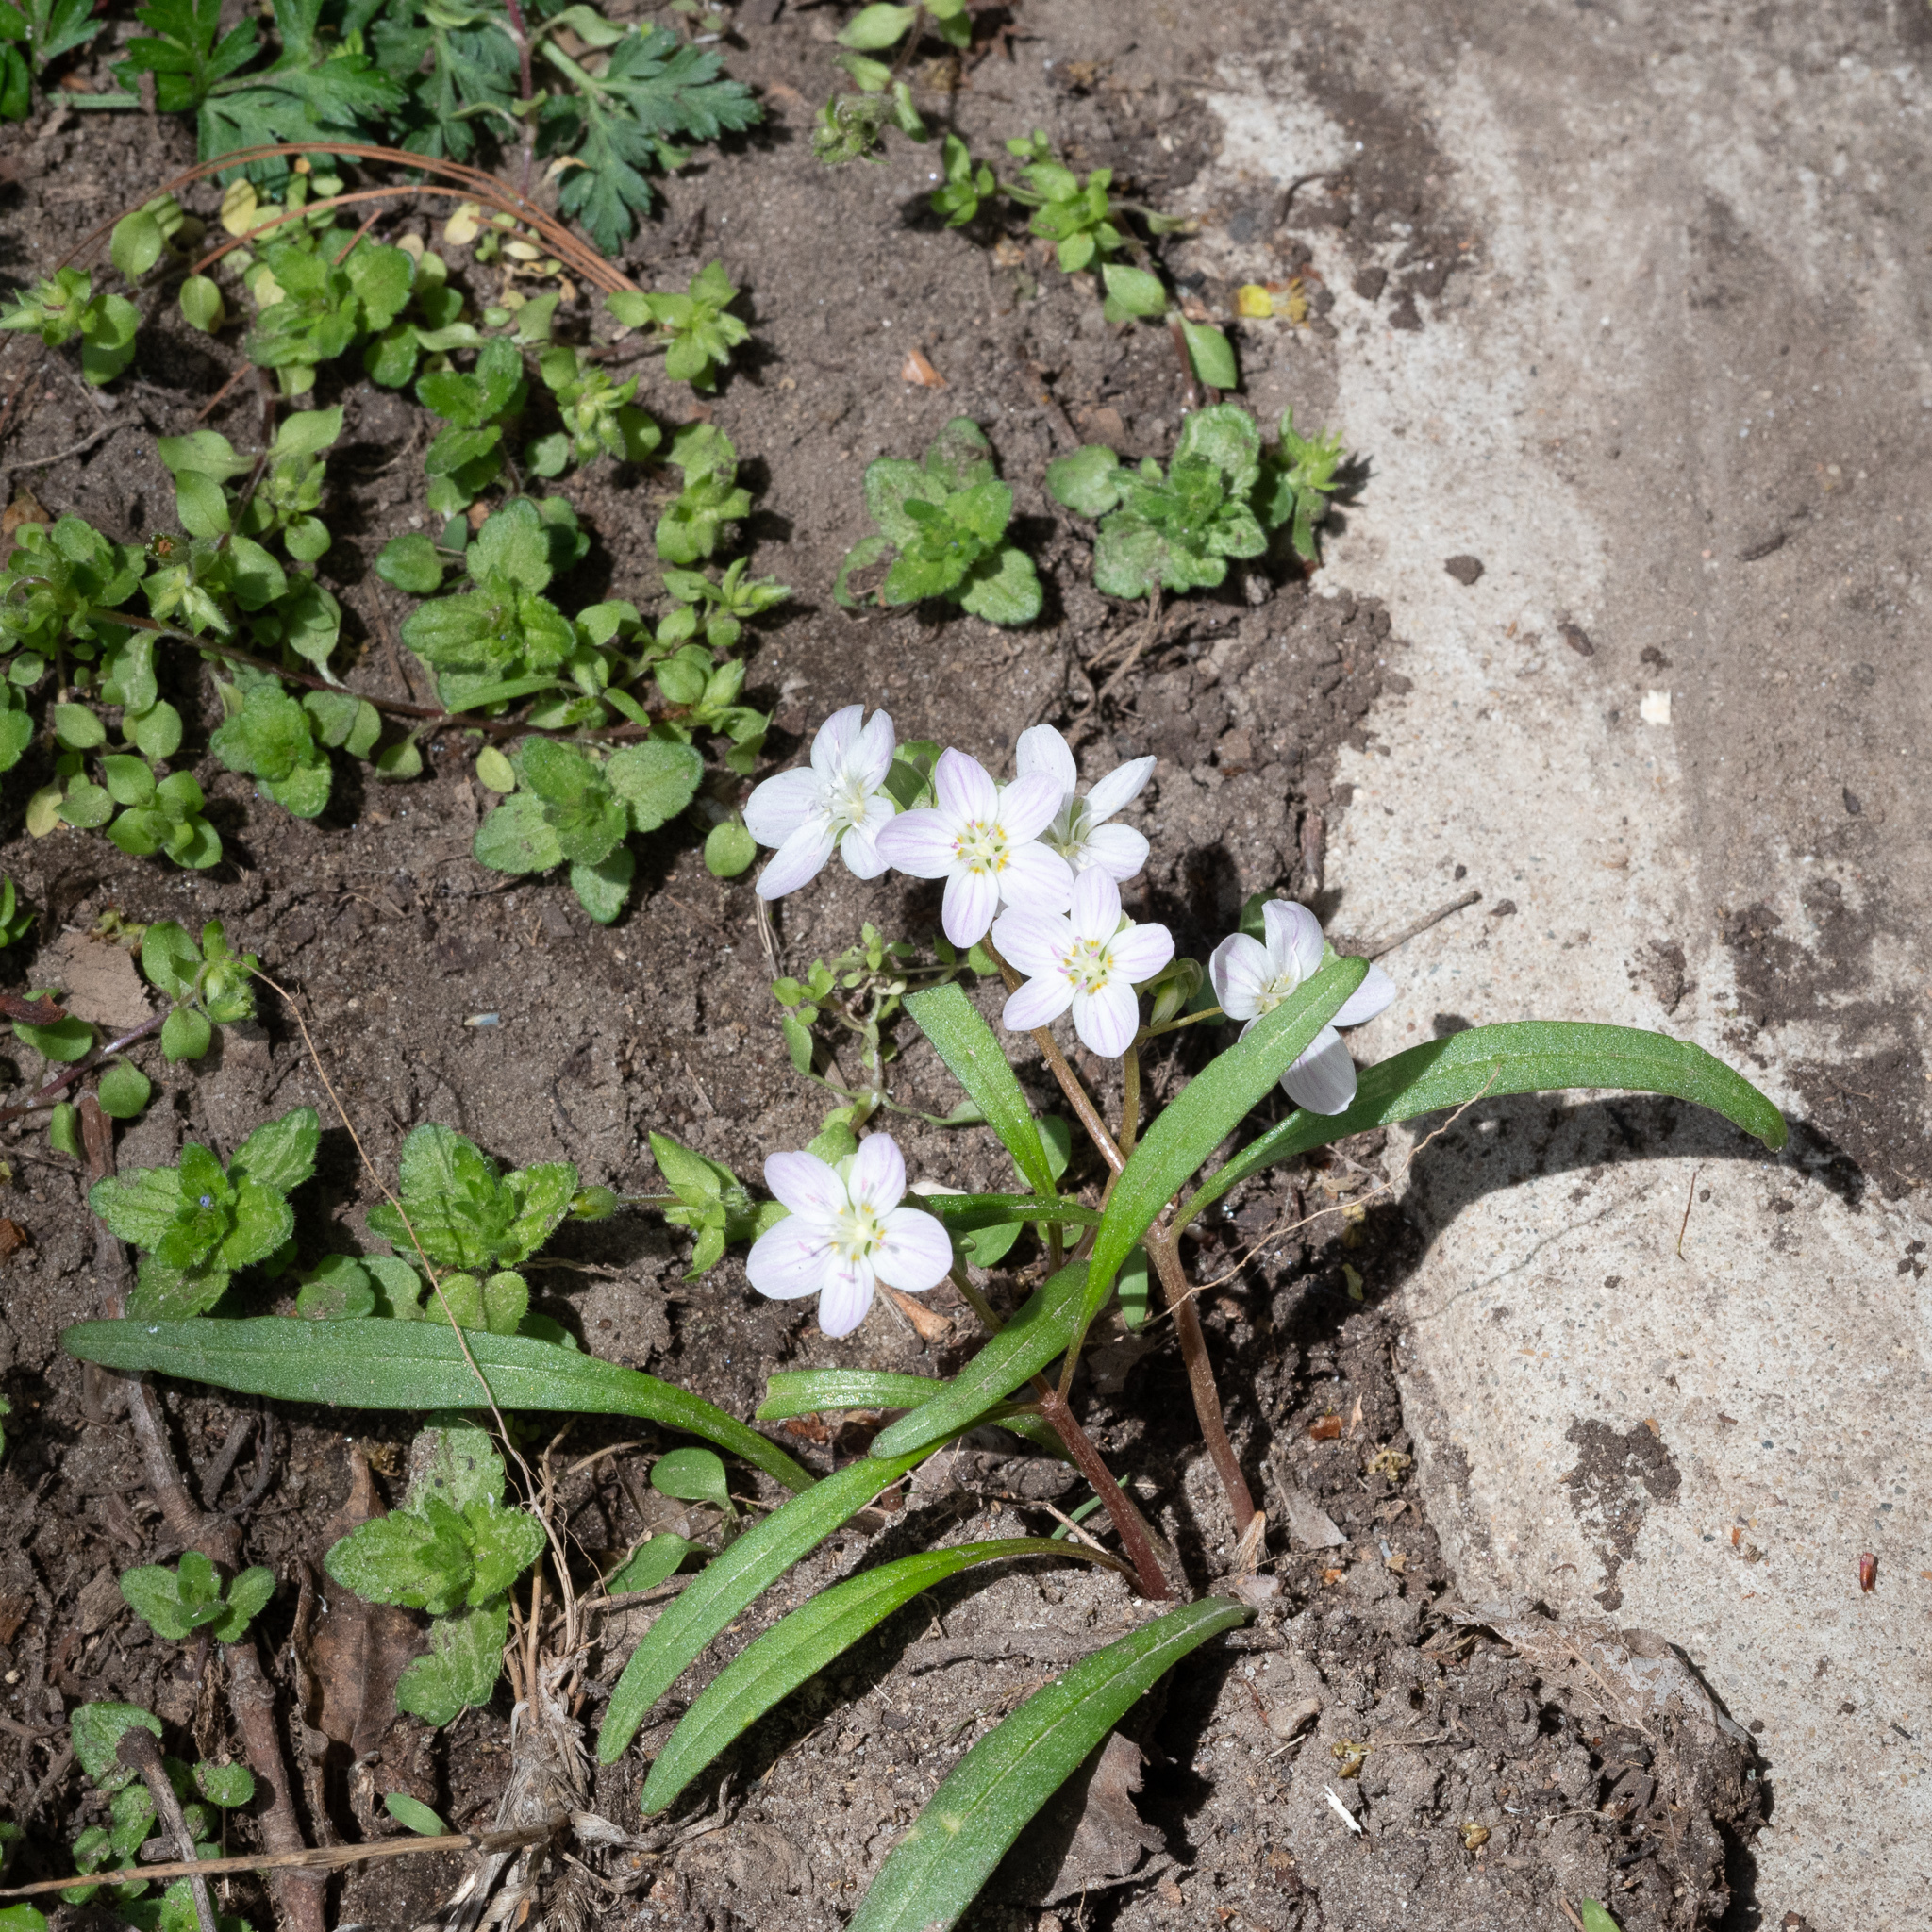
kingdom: Plantae
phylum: Tracheophyta
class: Magnoliopsida
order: Caryophyllales
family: Montiaceae
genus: Claytonia
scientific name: Claytonia virginica
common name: Virginia springbeauty
